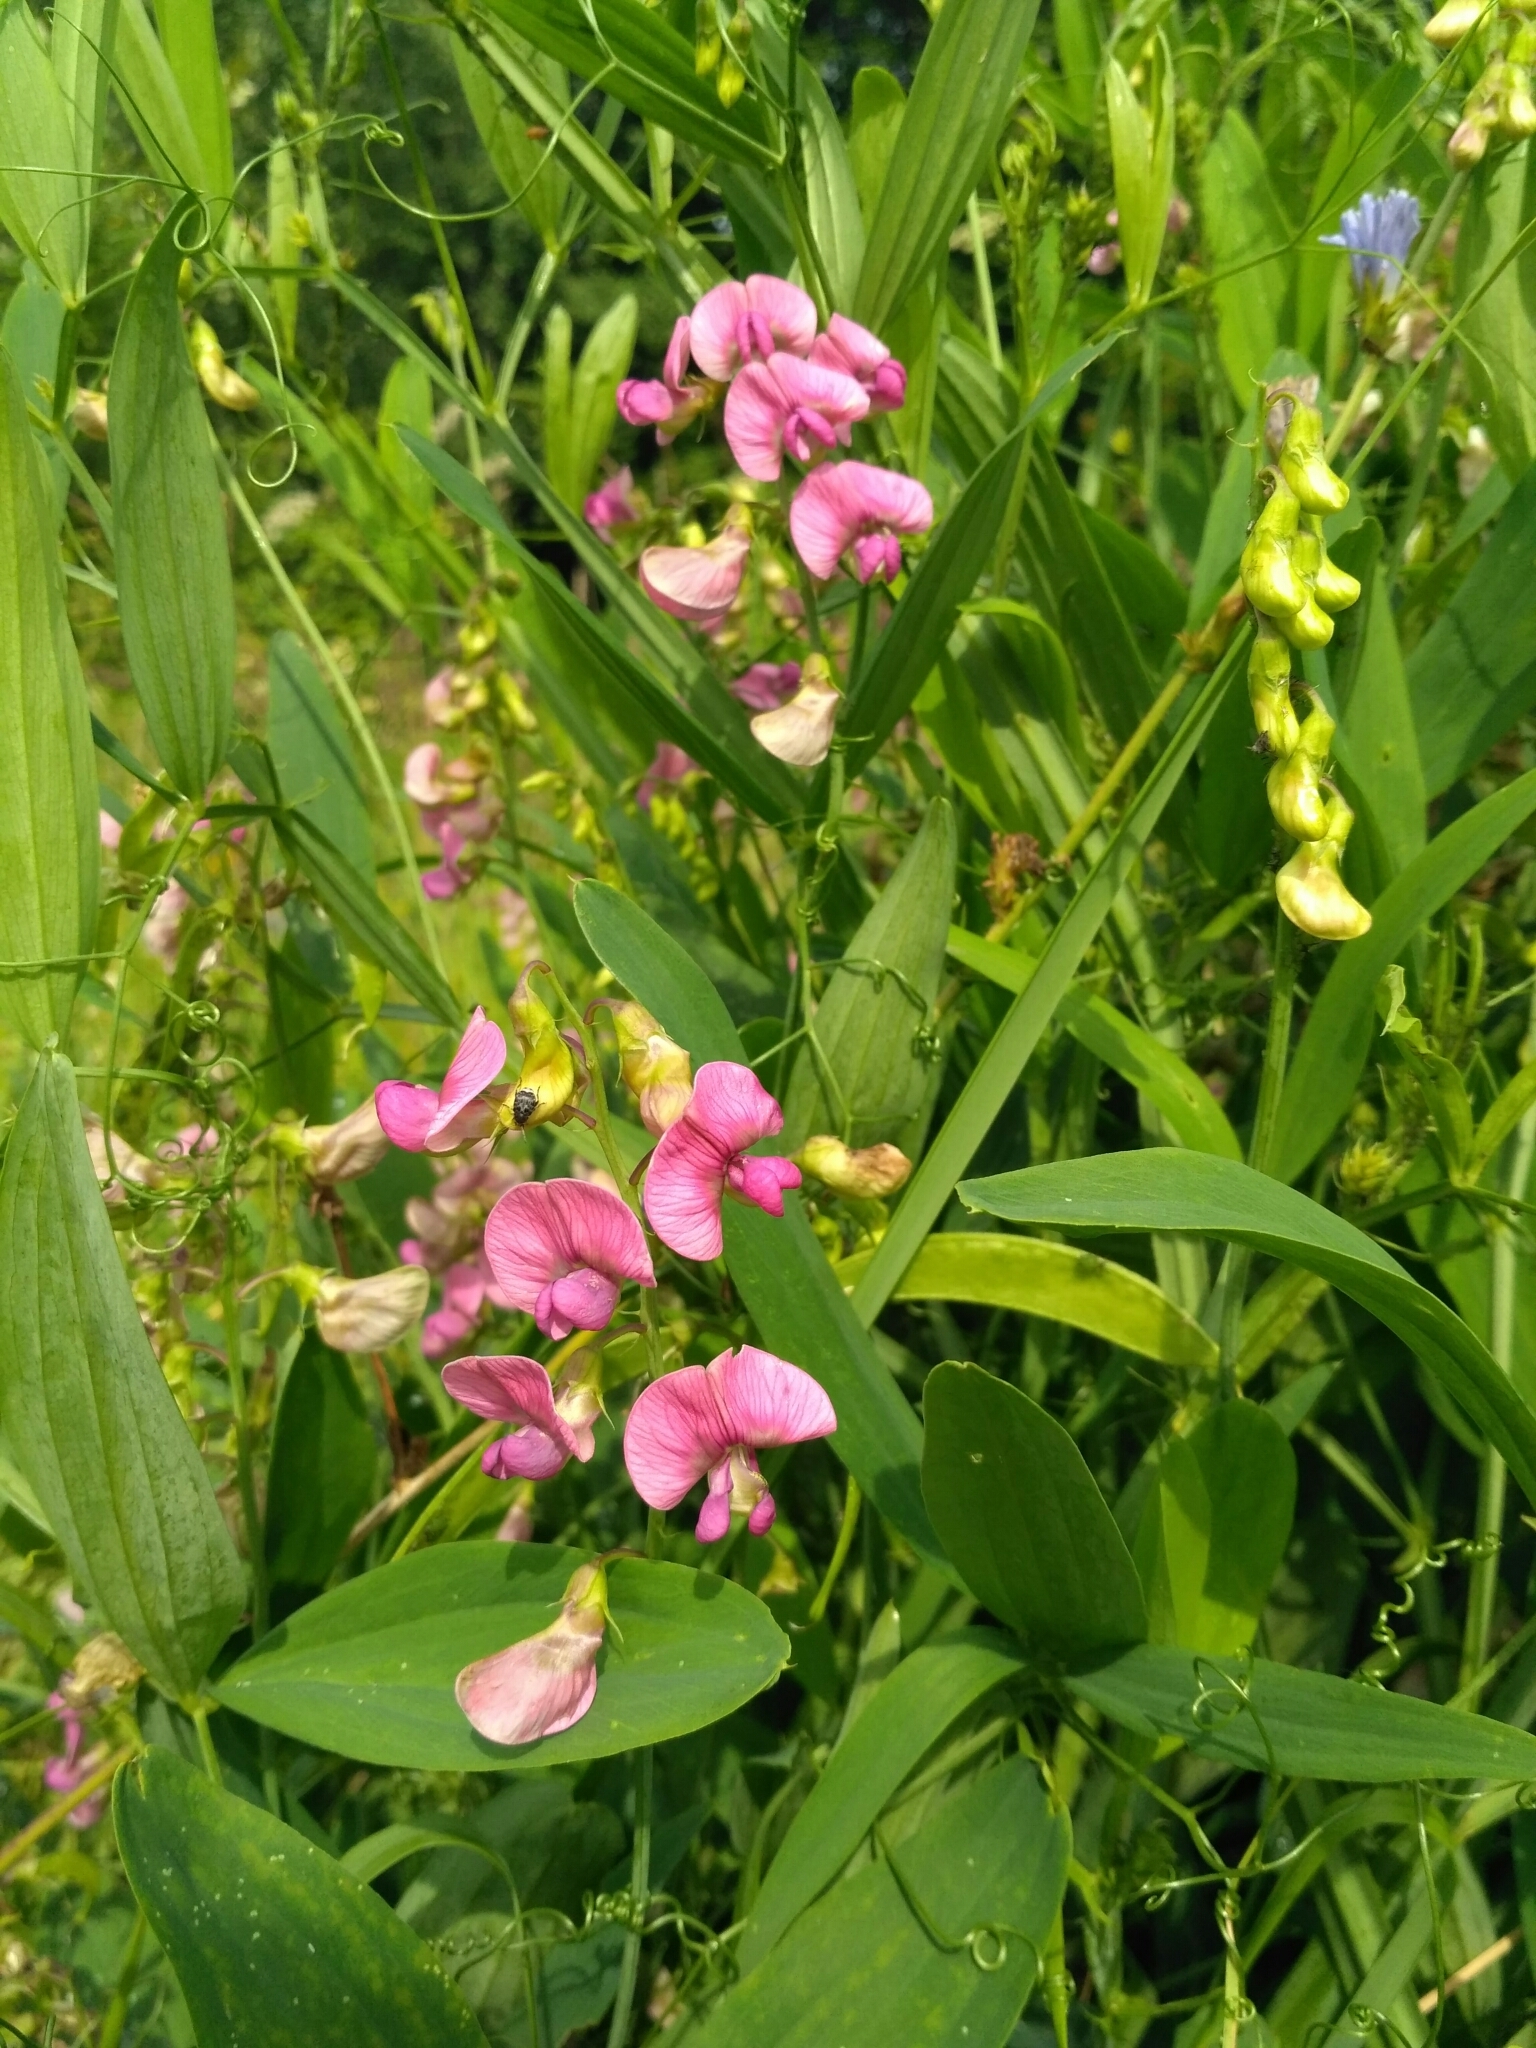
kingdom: Plantae
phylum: Tracheophyta
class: Magnoliopsida
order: Fabales
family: Fabaceae
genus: Lathyrus
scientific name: Lathyrus sylvestris
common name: Flat pea
